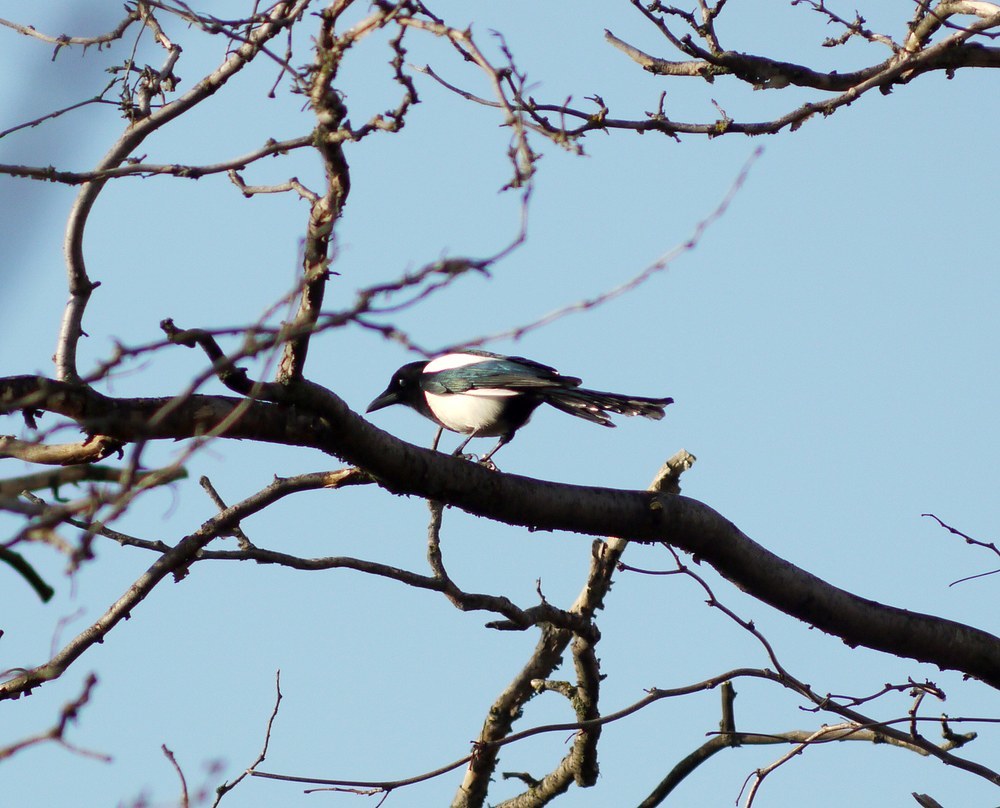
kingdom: Animalia
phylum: Chordata
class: Aves
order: Passeriformes
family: Corvidae
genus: Pica
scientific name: Pica pica
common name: Eurasian magpie
